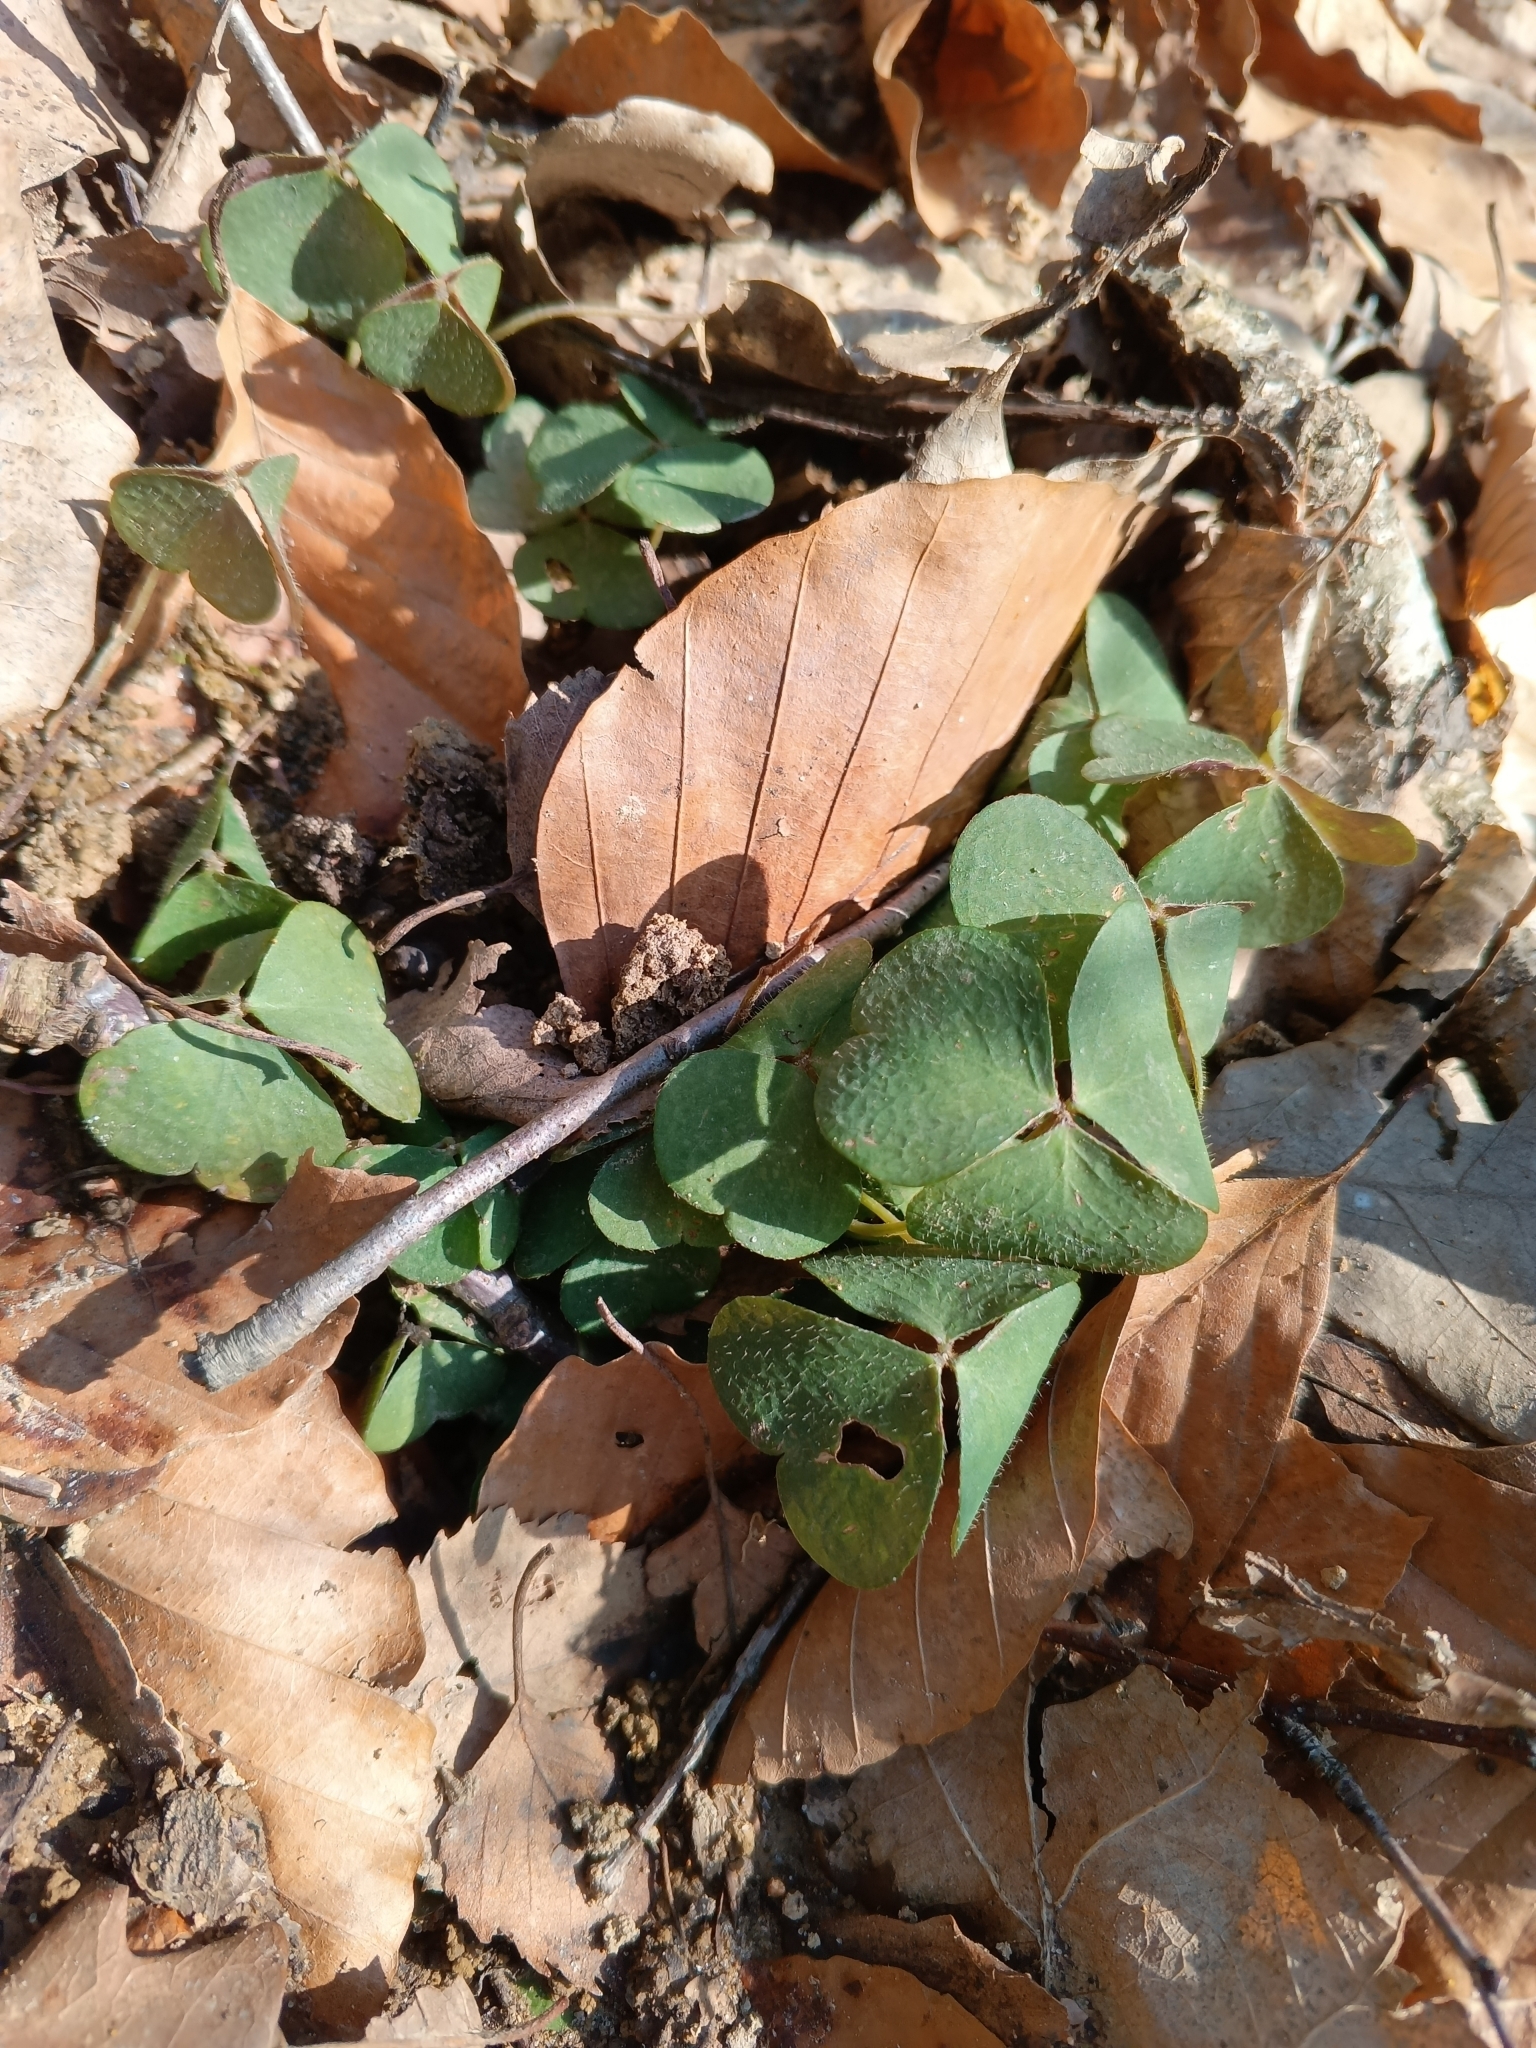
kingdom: Plantae
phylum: Tracheophyta
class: Magnoliopsida
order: Oxalidales
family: Oxalidaceae
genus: Oxalis
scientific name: Oxalis acetosella
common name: Wood-sorrel
